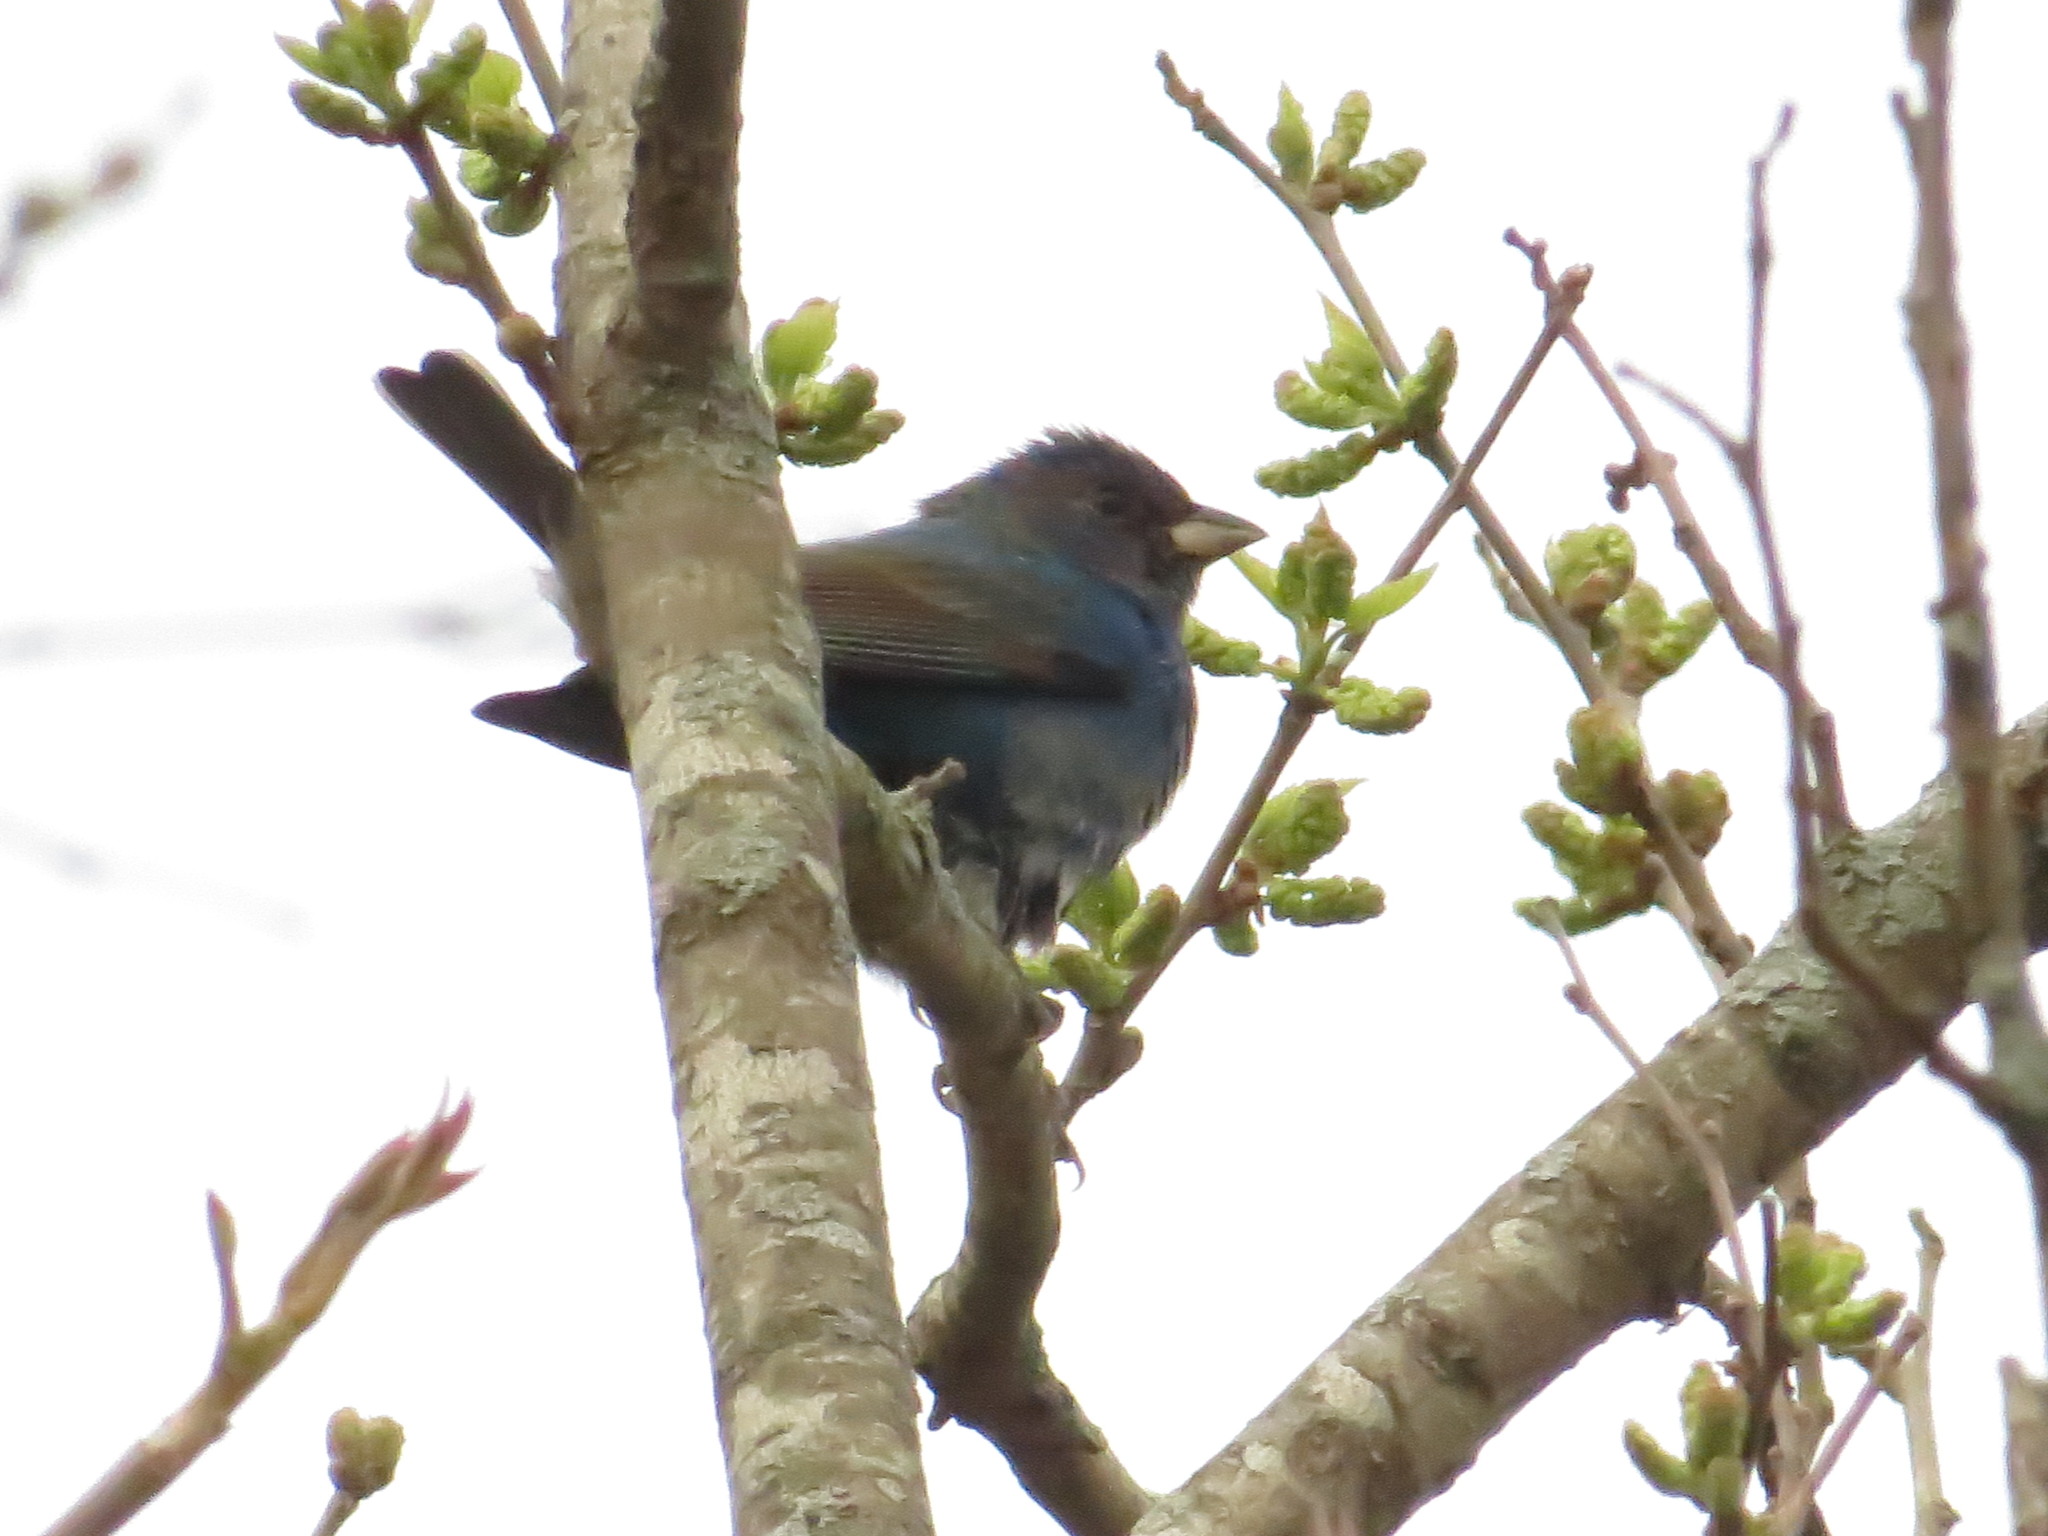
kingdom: Animalia
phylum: Chordata
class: Aves
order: Passeriformes
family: Cardinalidae
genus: Passerina
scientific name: Passerina cyanea
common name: Indigo bunting
